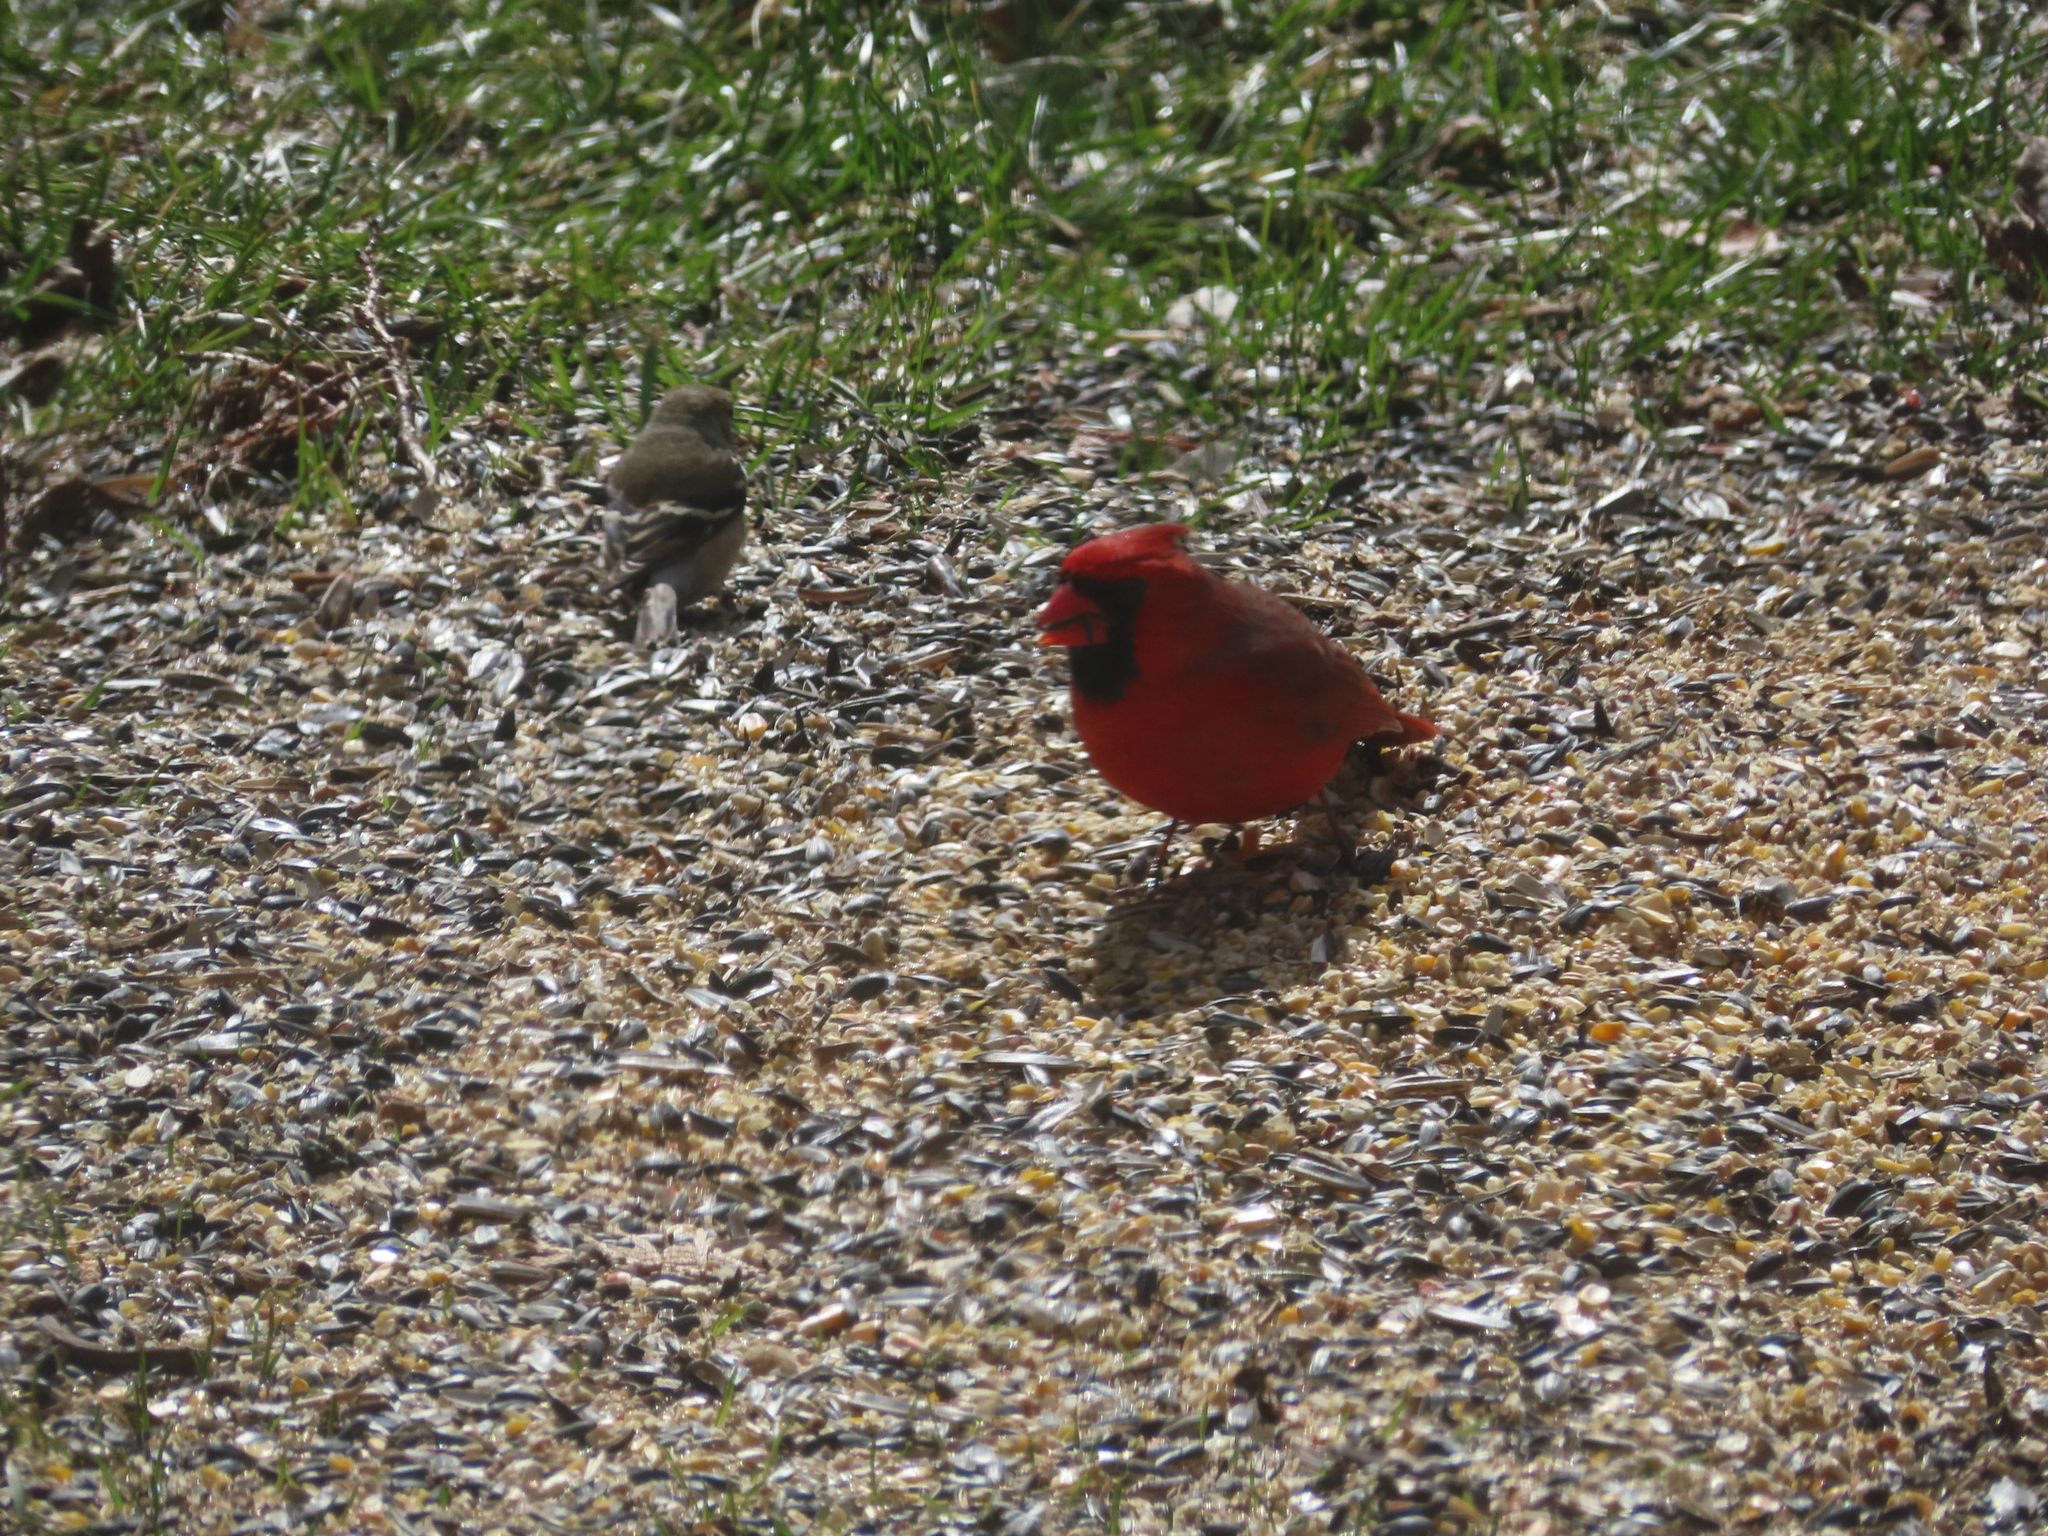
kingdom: Animalia
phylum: Chordata
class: Aves
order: Passeriformes
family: Cardinalidae
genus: Cardinalis
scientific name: Cardinalis cardinalis
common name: Northern cardinal
